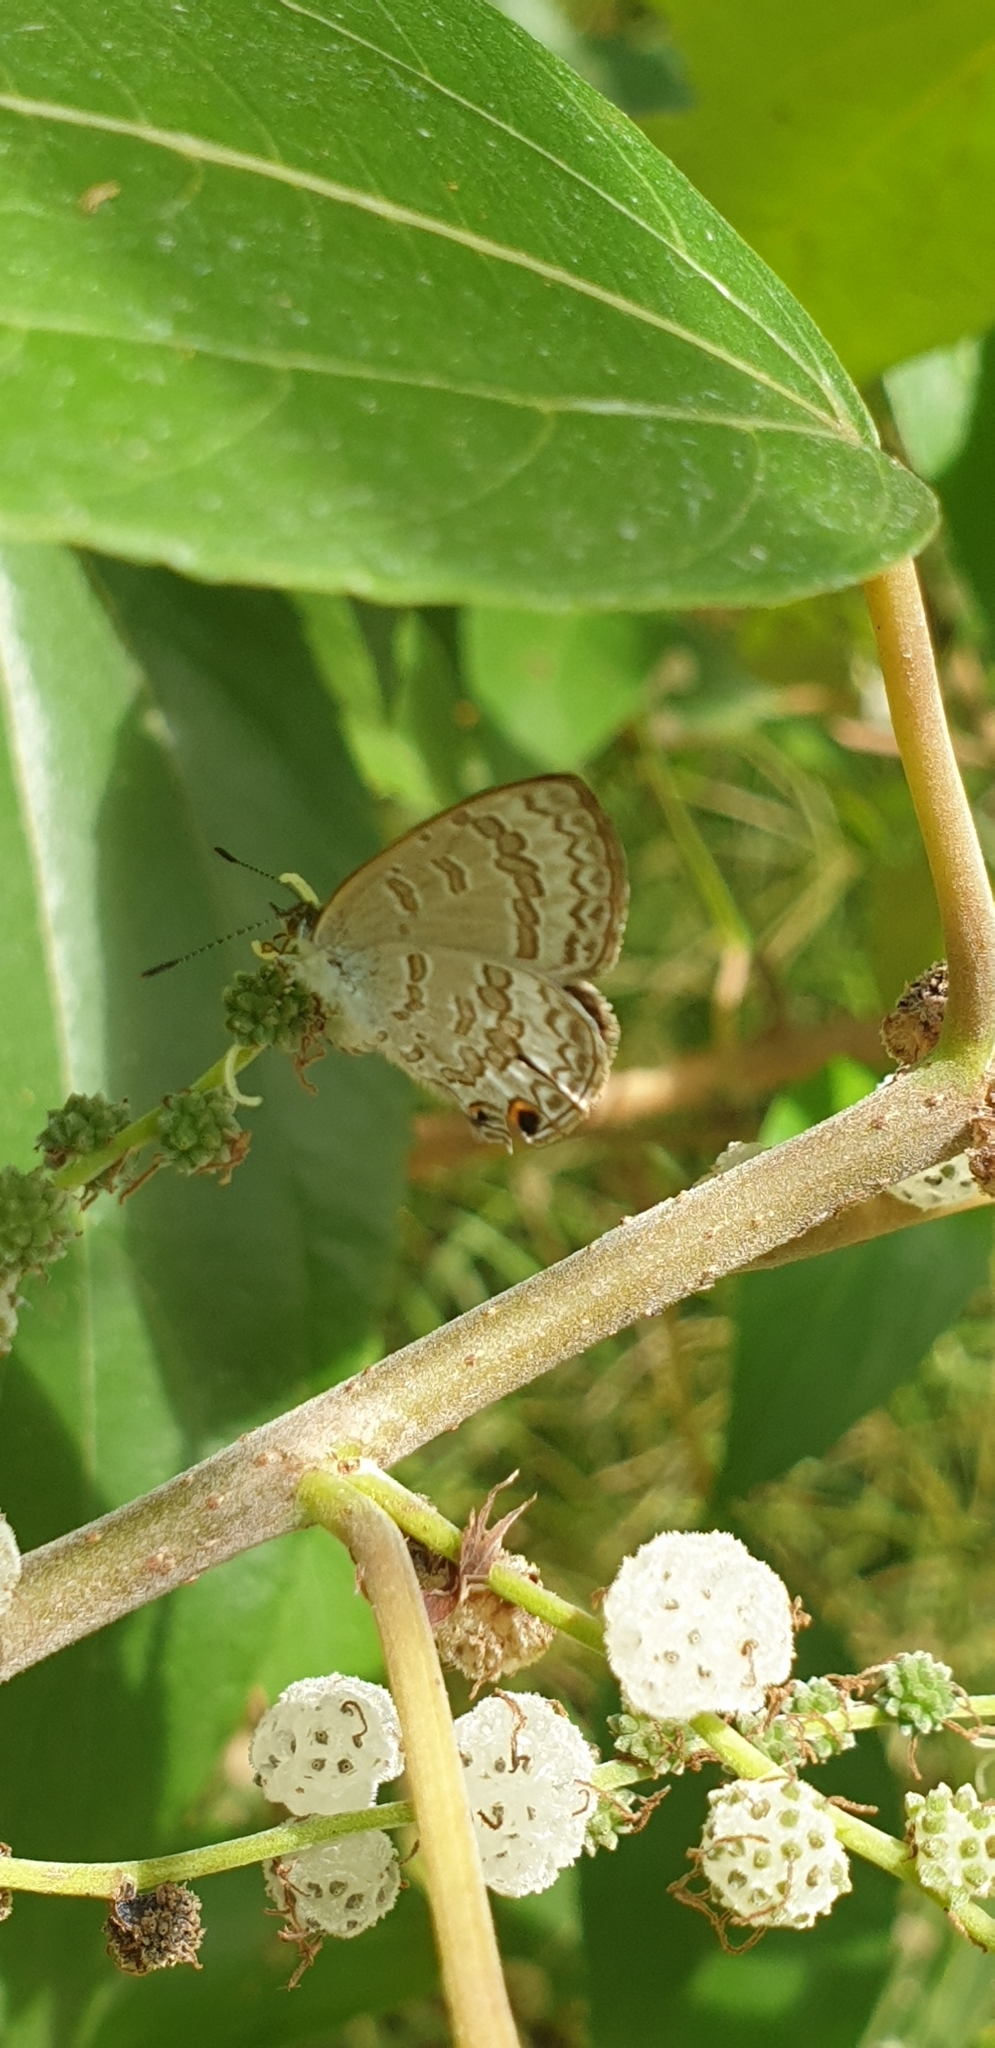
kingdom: Animalia
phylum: Arthropoda
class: Insecta
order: Lepidoptera
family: Lycaenidae
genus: Catopyrops
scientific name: Catopyrops florinda
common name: Speckled line-blue
